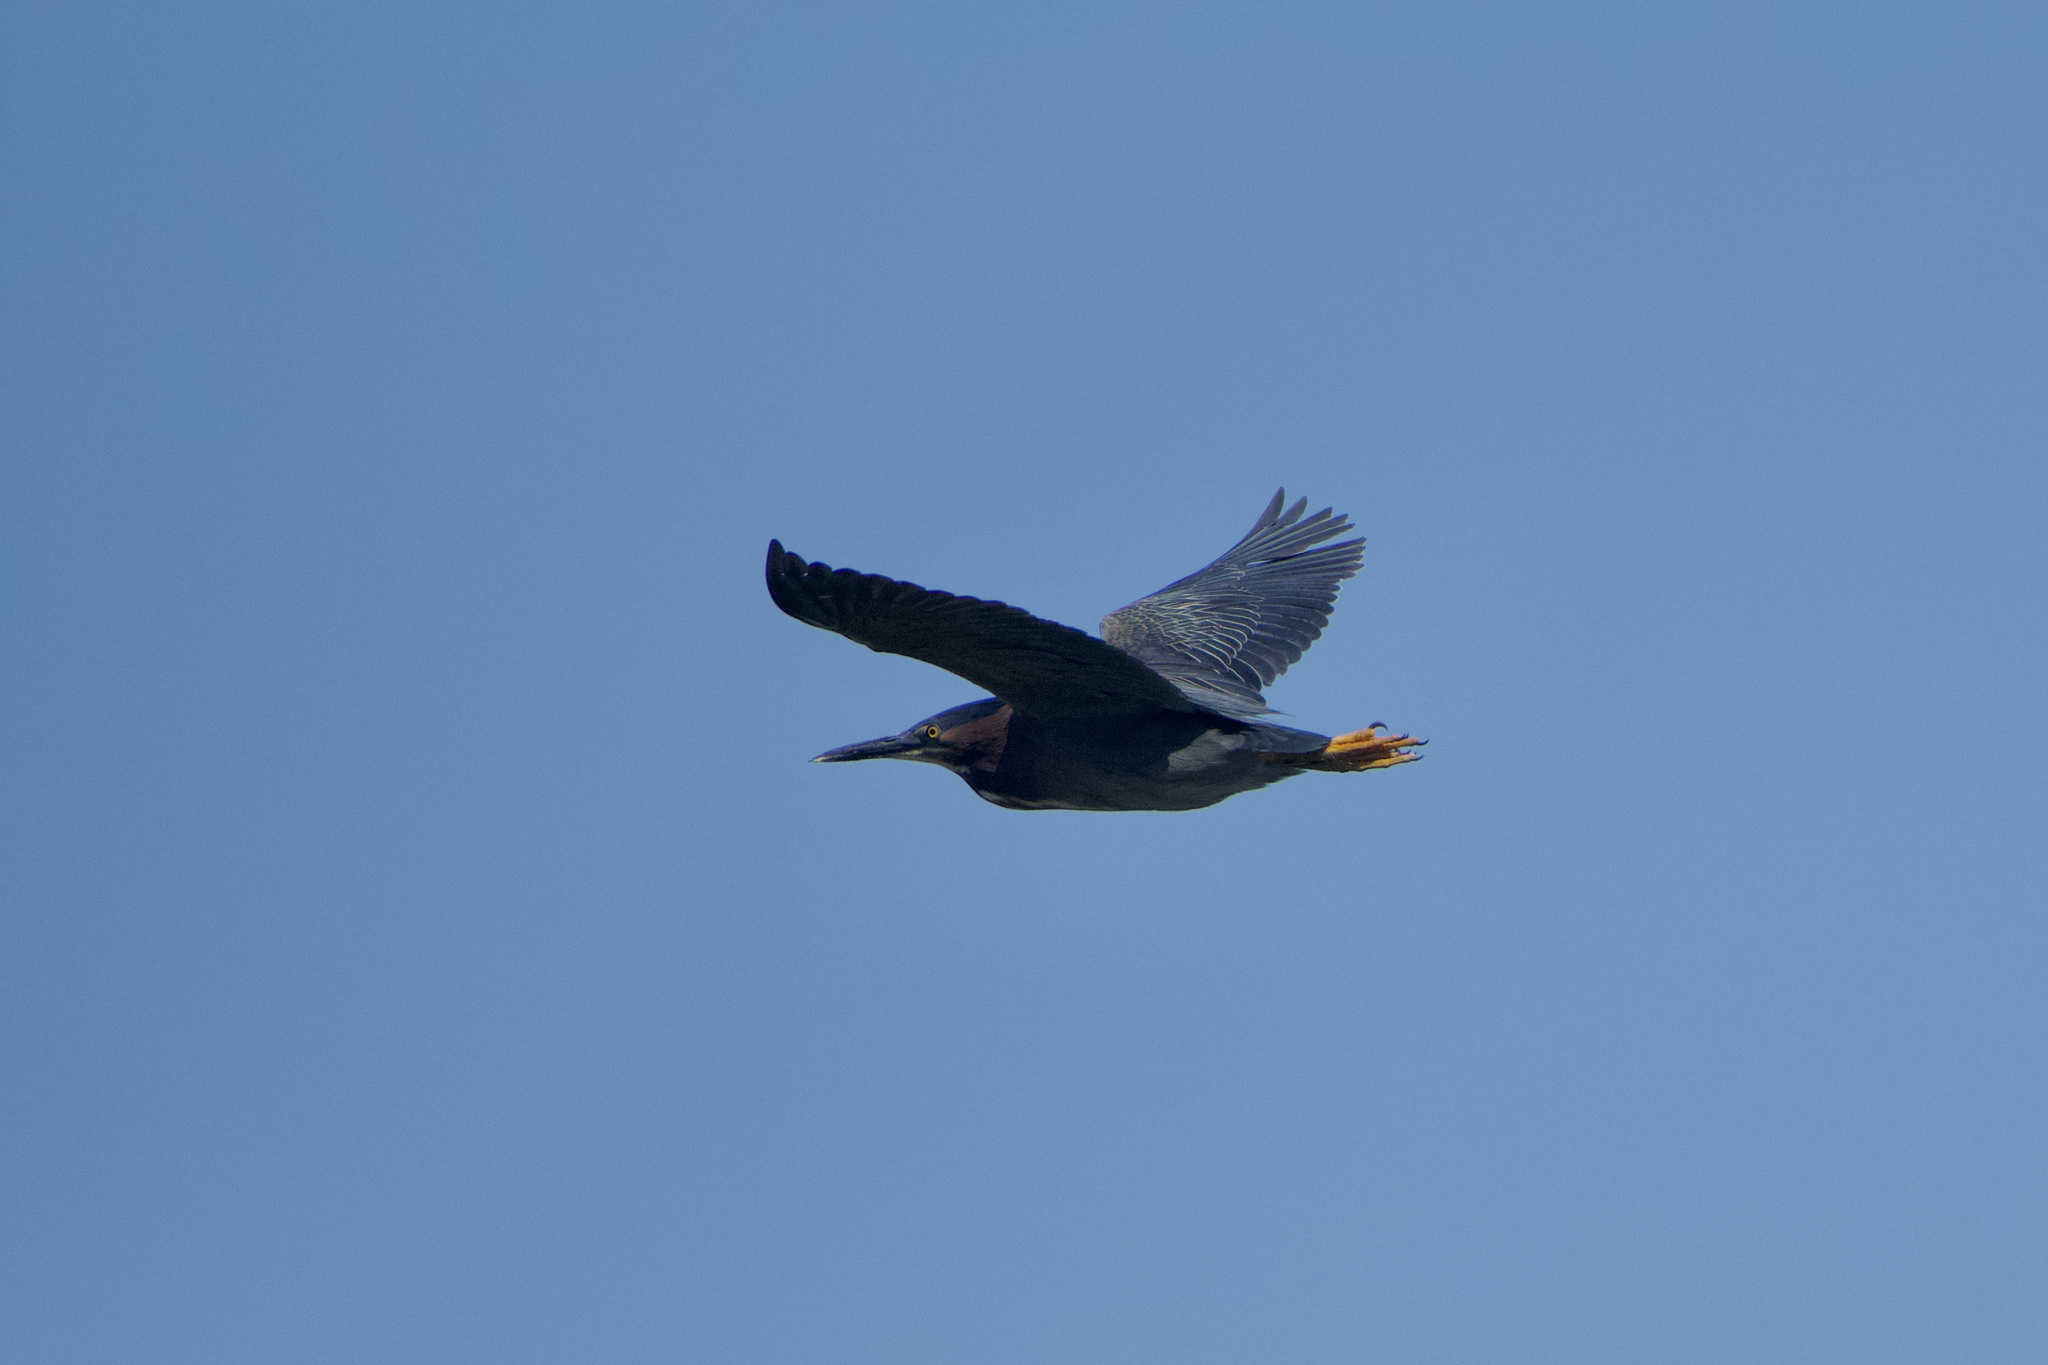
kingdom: Animalia
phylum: Chordata
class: Aves
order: Pelecaniformes
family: Ardeidae
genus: Butorides
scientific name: Butorides virescens
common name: Green heron
